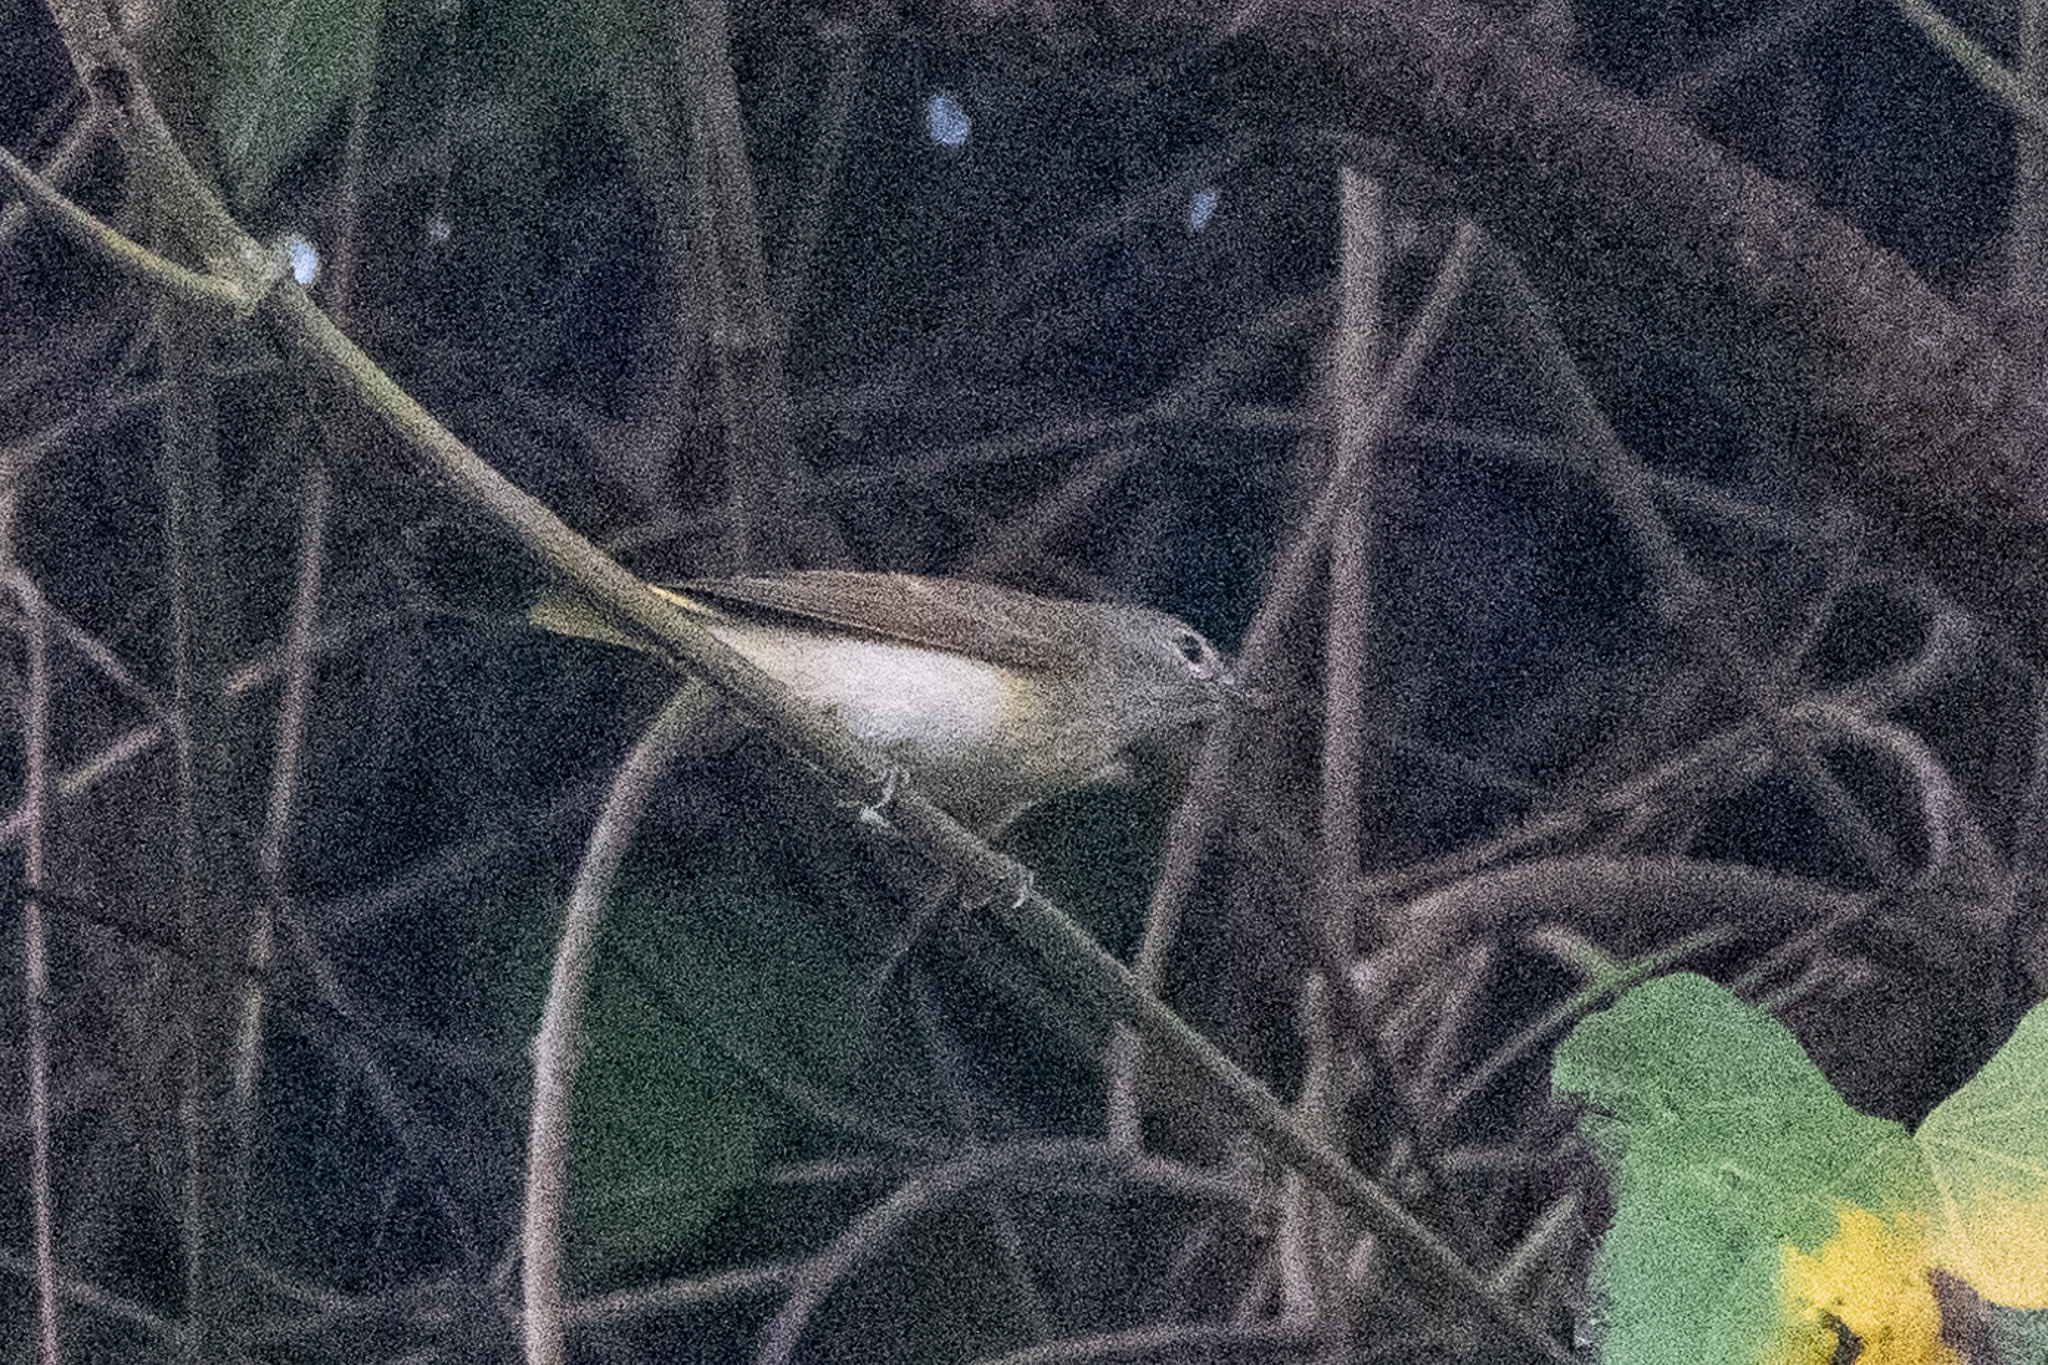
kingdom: Animalia
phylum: Chordata
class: Aves
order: Passeriformes
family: Parulidae
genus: Setophaga
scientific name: Setophaga ruticilla
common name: American redstart
